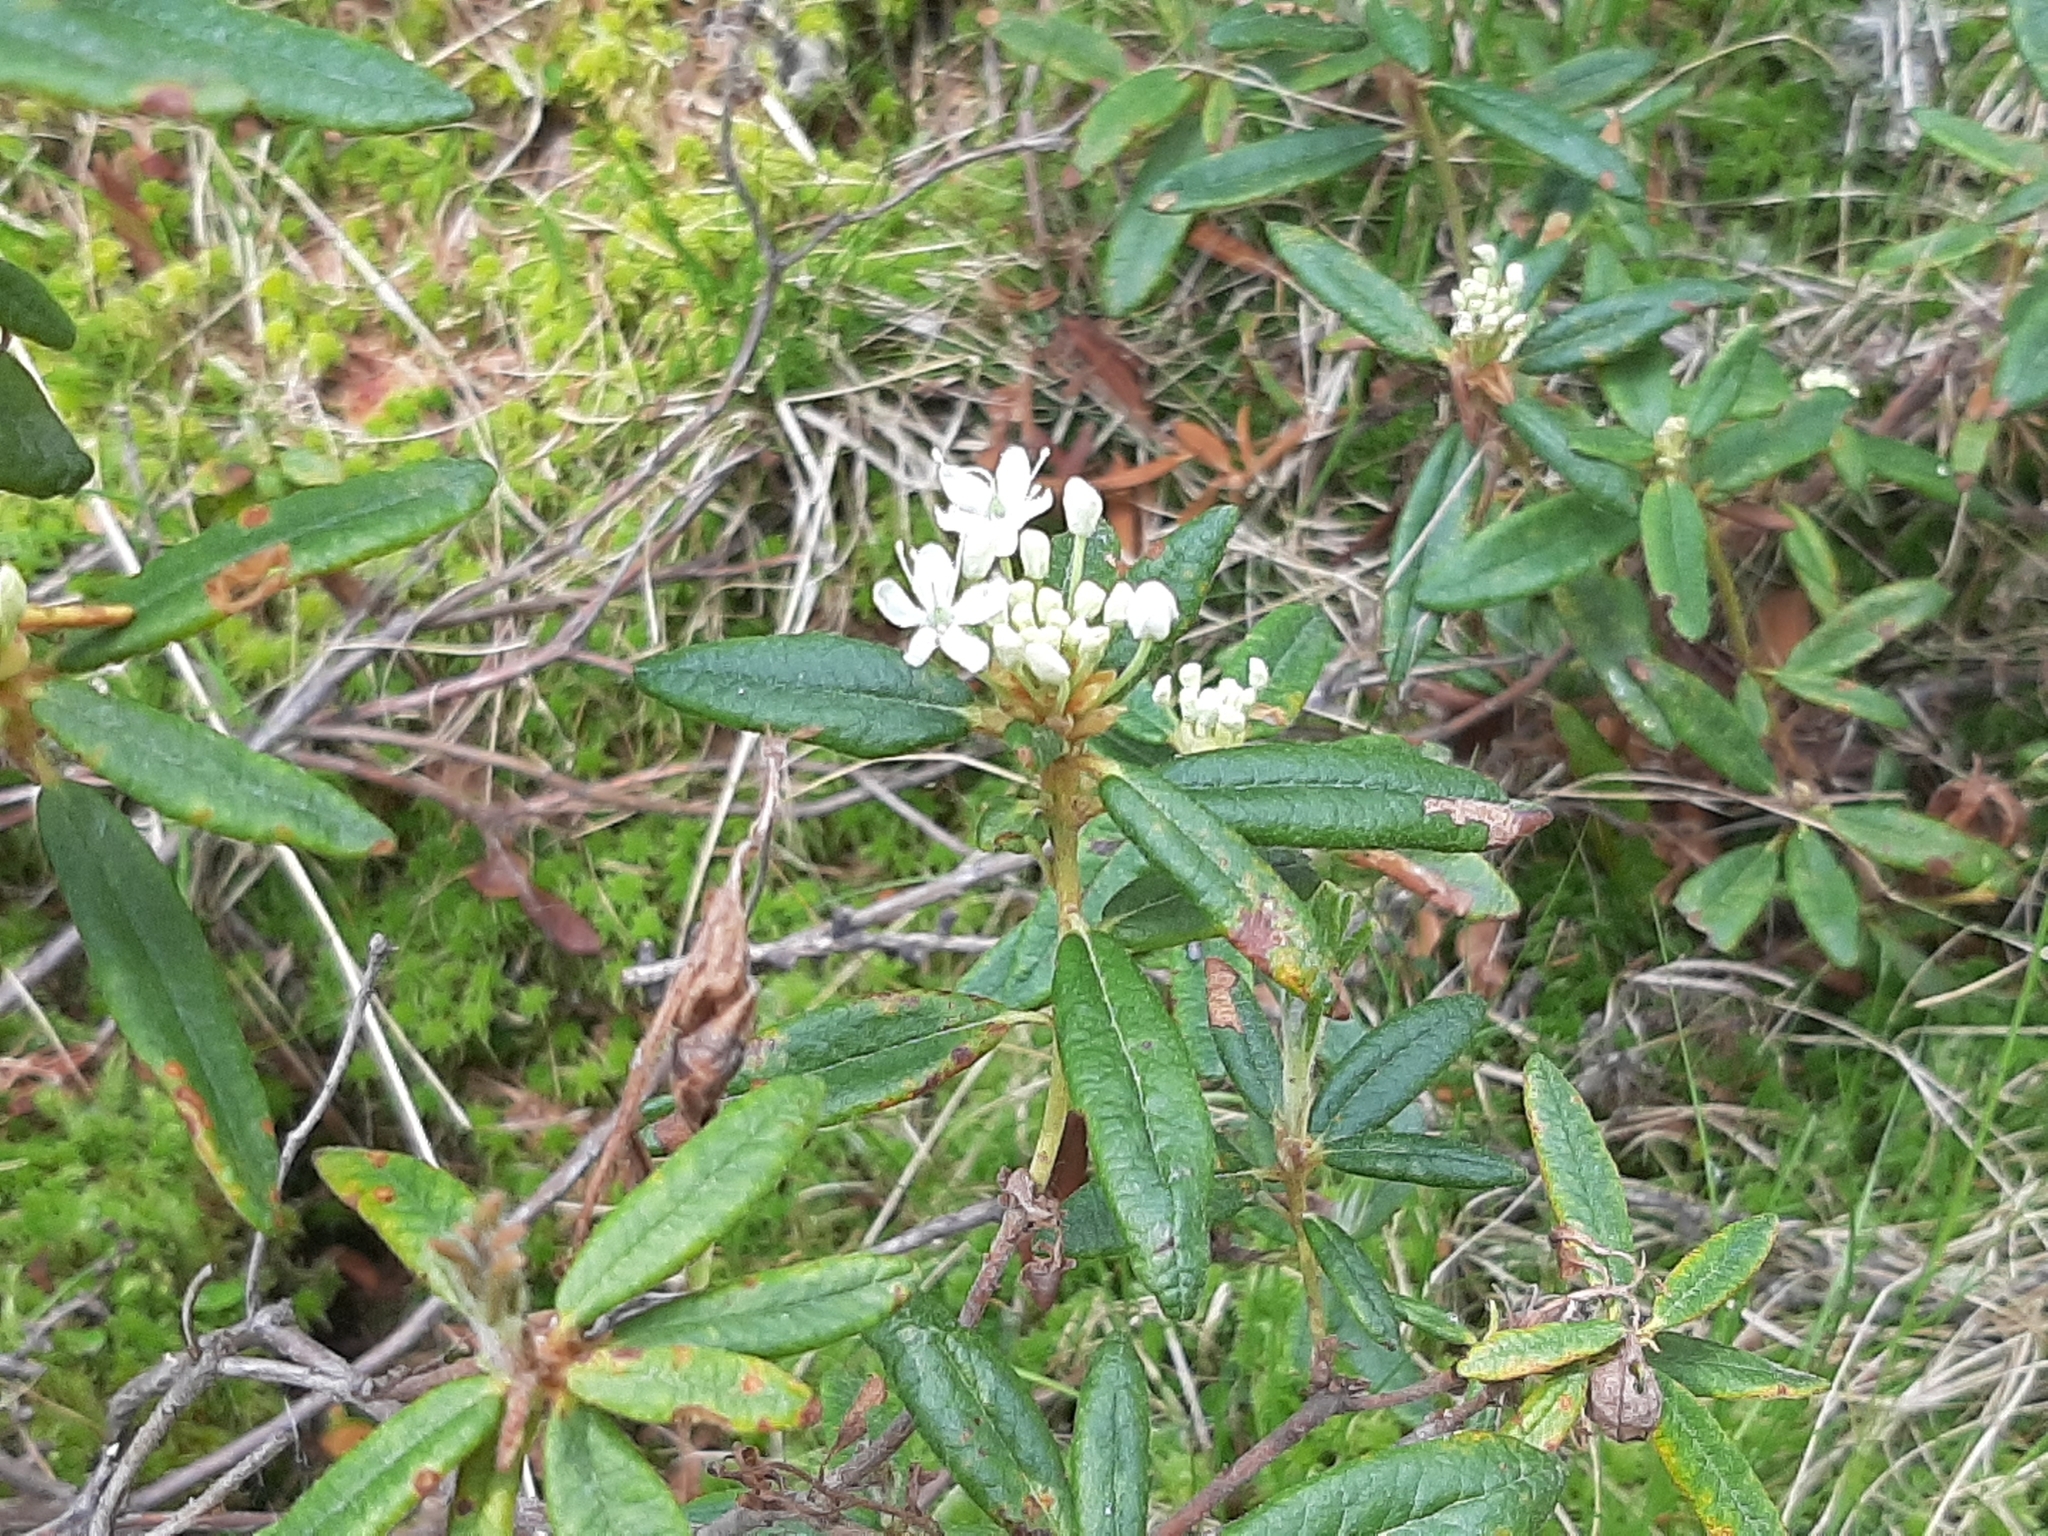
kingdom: Plantae
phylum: Tracheophyta
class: Magnoliopsida
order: Ericales
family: Ericaceae
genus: Rhododendron
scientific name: Rhododendron groenlandicum
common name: Bog labrador tea
